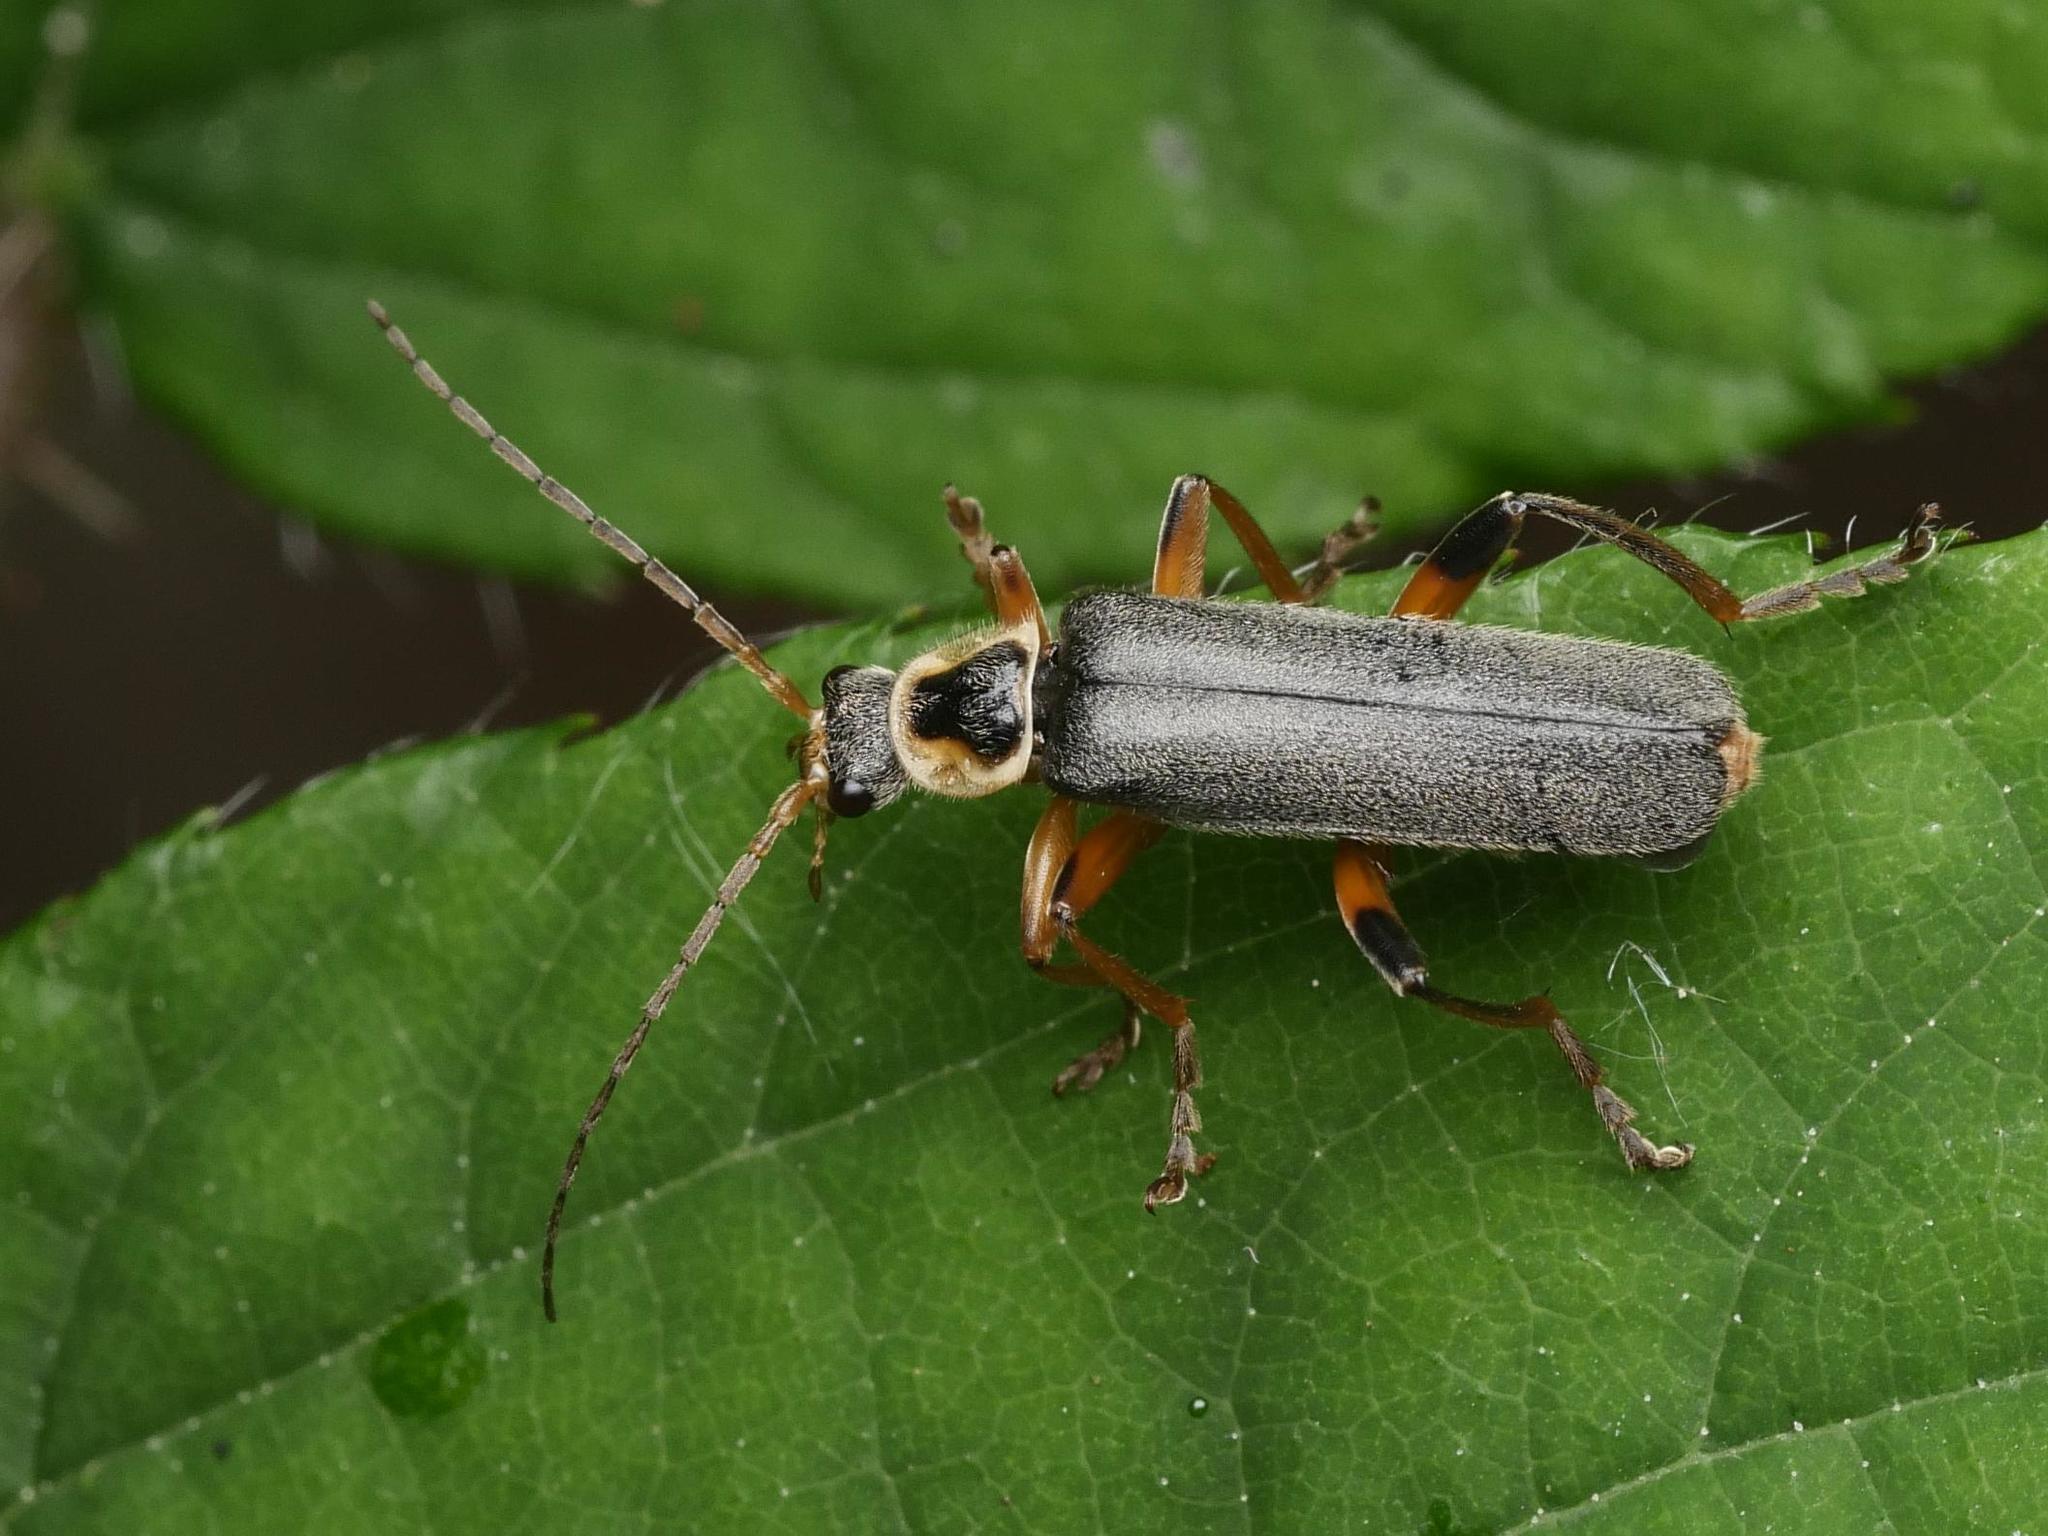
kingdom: Animalia
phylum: Arthropoda
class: Insecta
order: Coleoptera
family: Cantharidae
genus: Cantharis
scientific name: Cantharis nigricans
